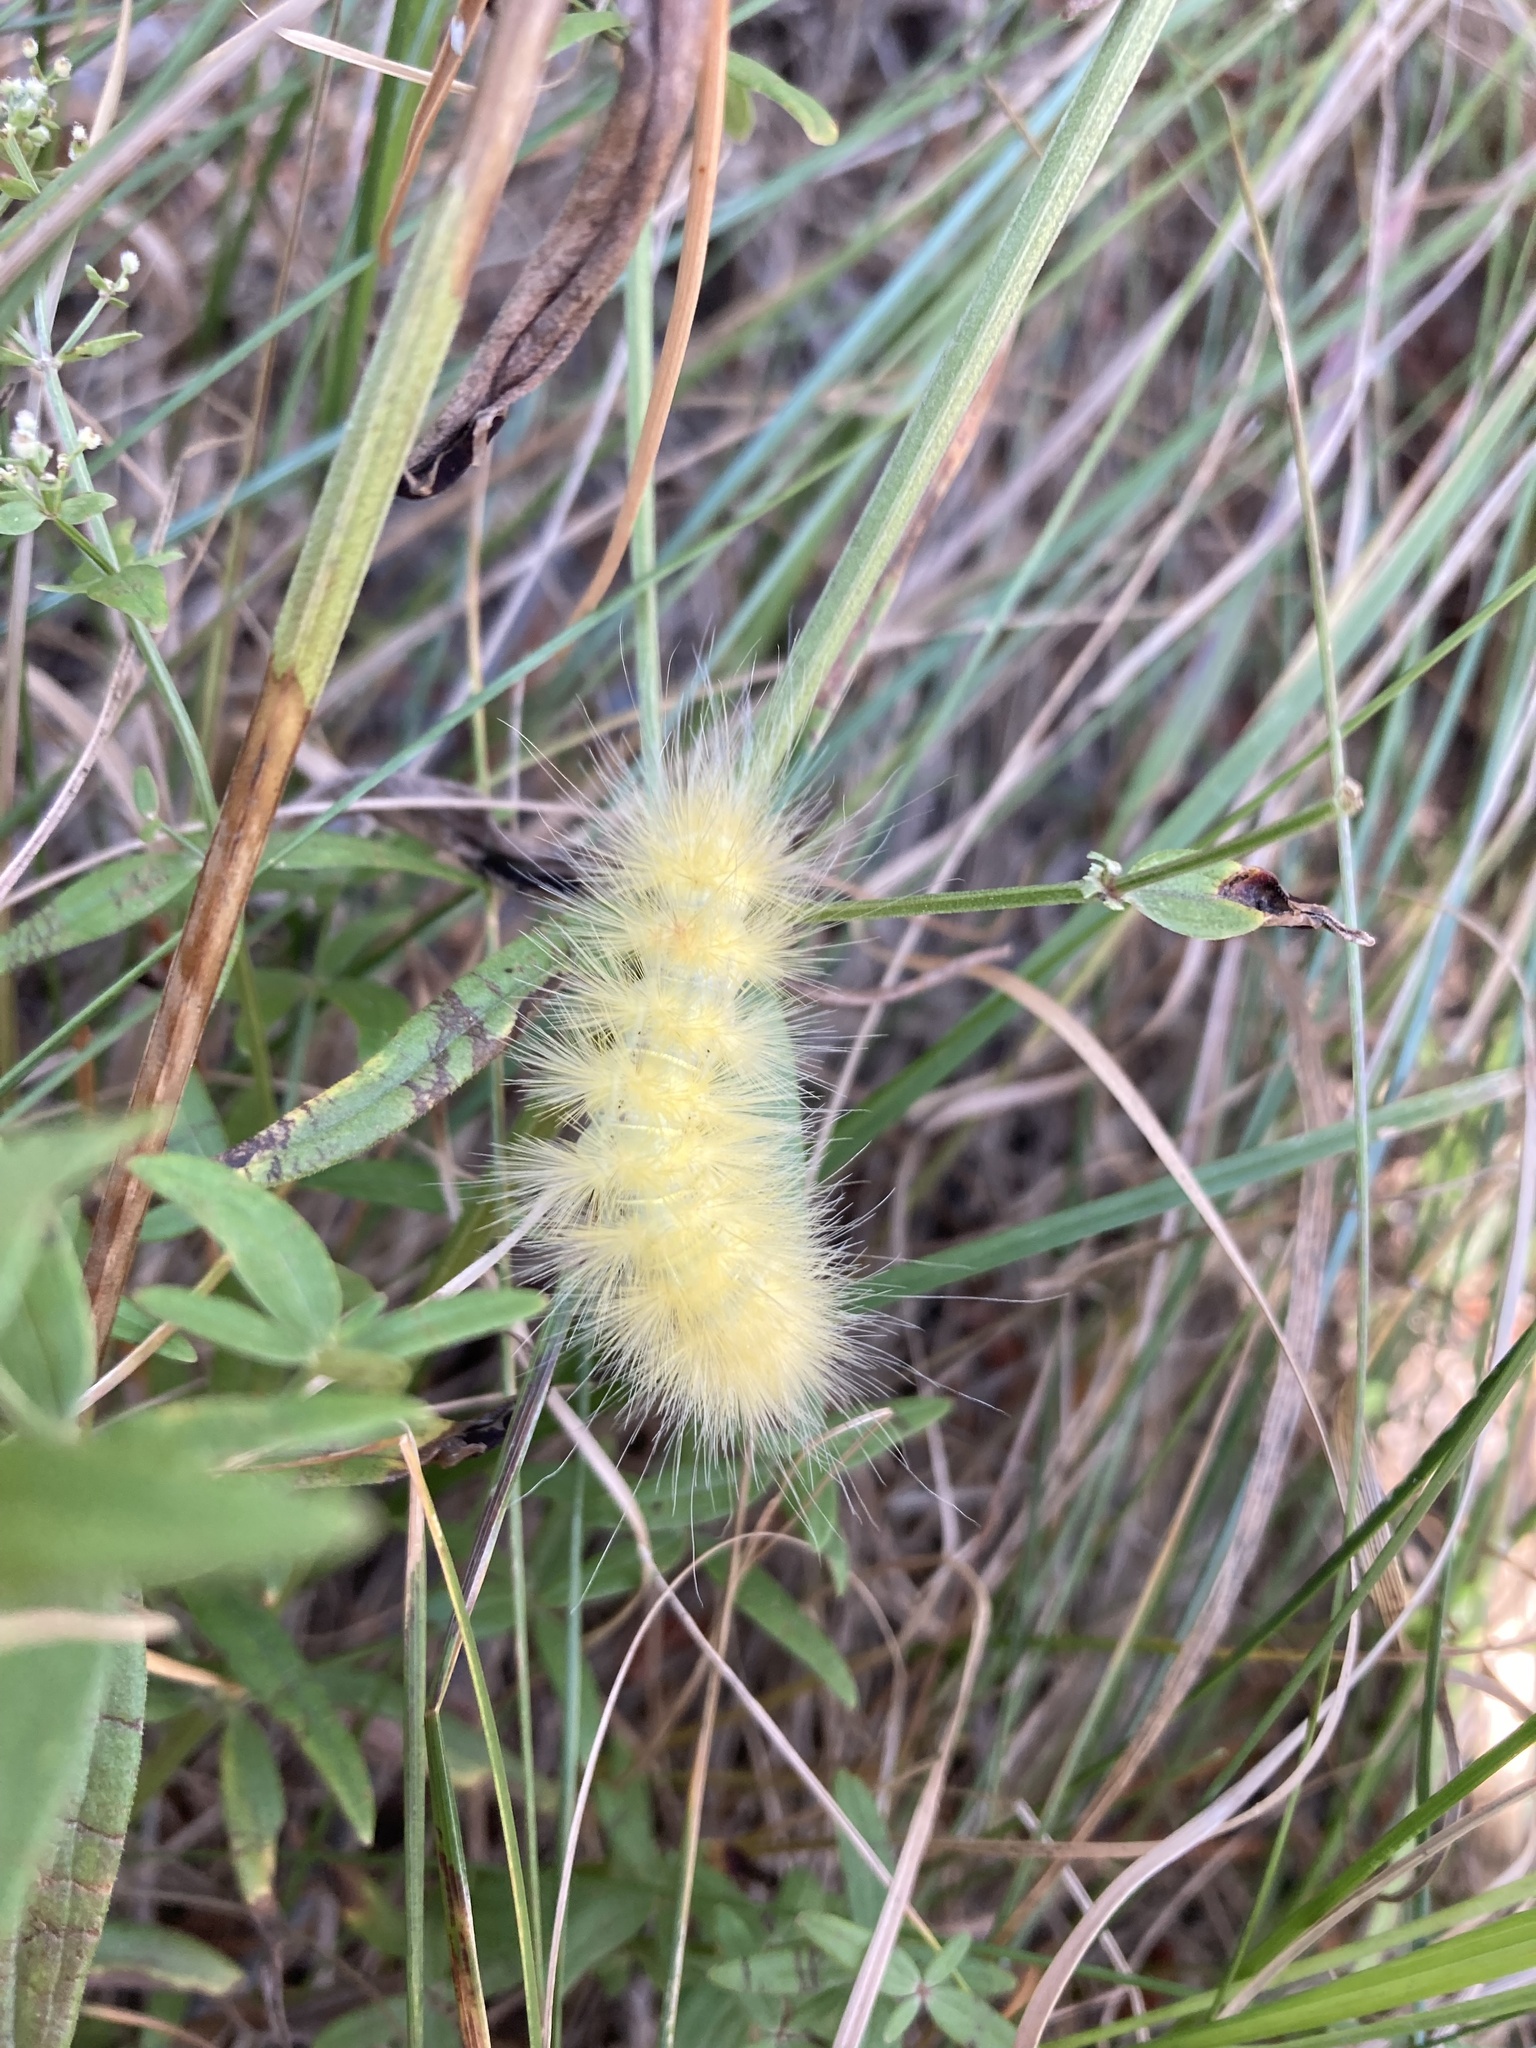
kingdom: Animalia
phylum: Arthropoda
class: Insecta
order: Lepidoptera
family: Erebidae
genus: Spilosoma
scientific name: Spilosoma virginica
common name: Virginia tiger moth
